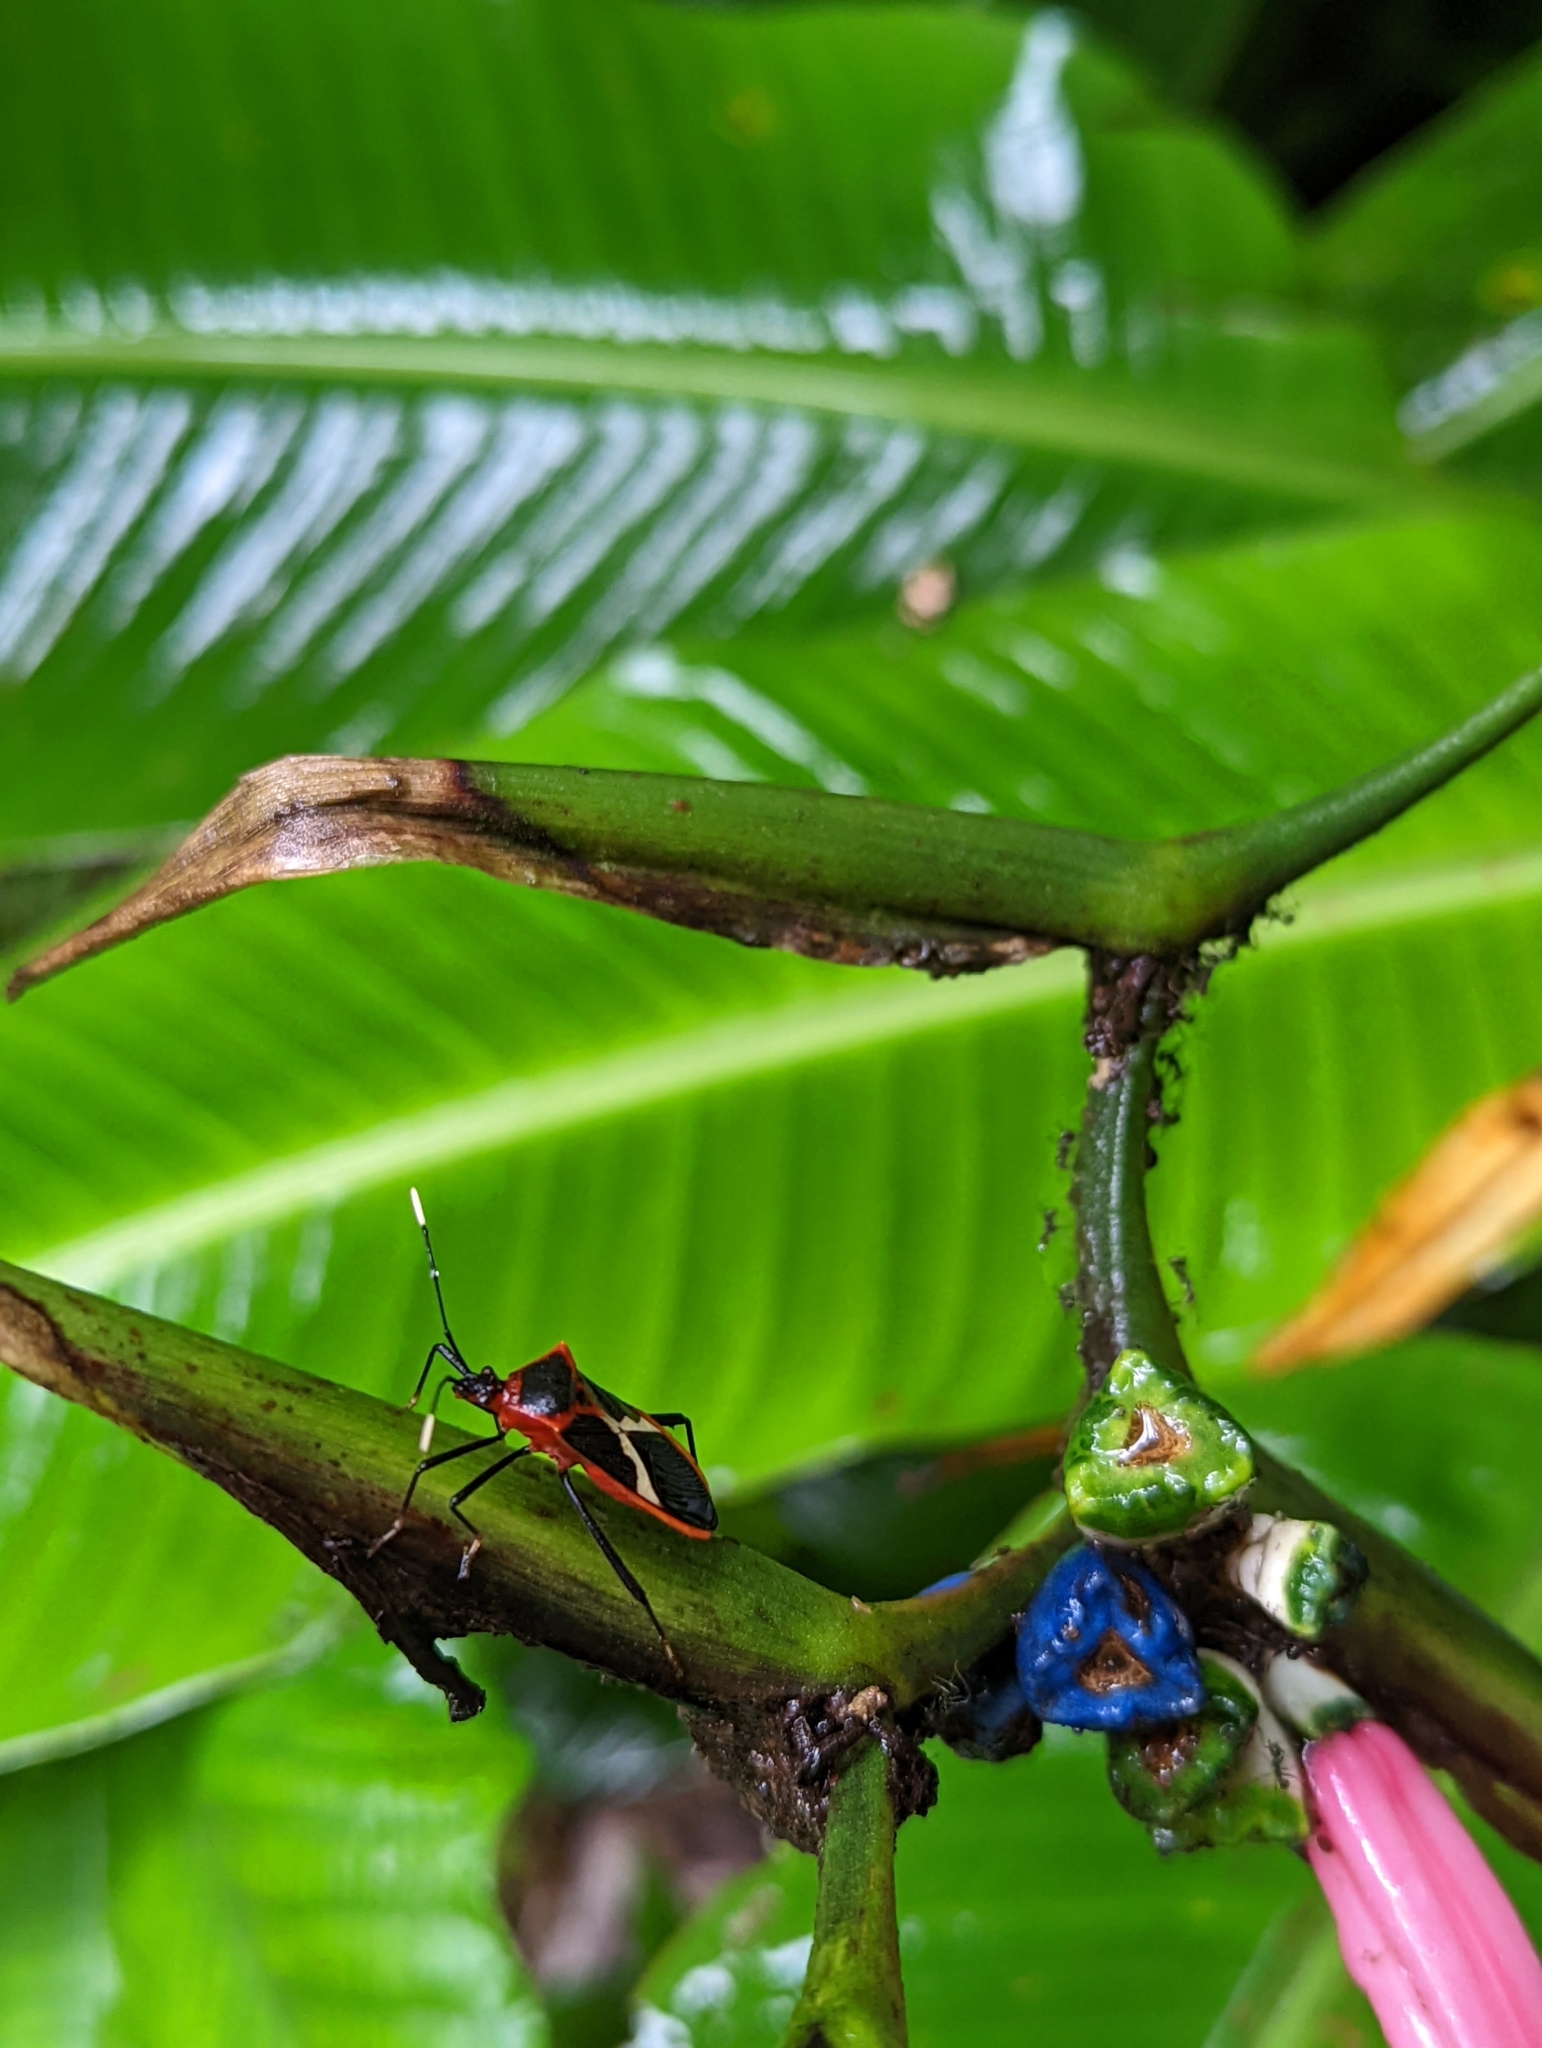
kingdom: Animalia
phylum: Arthropoda
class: Insecta
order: Hemiptera
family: Coreidae
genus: Leptoscelis
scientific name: Leptoscelis tricolor
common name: Heliconia bug
